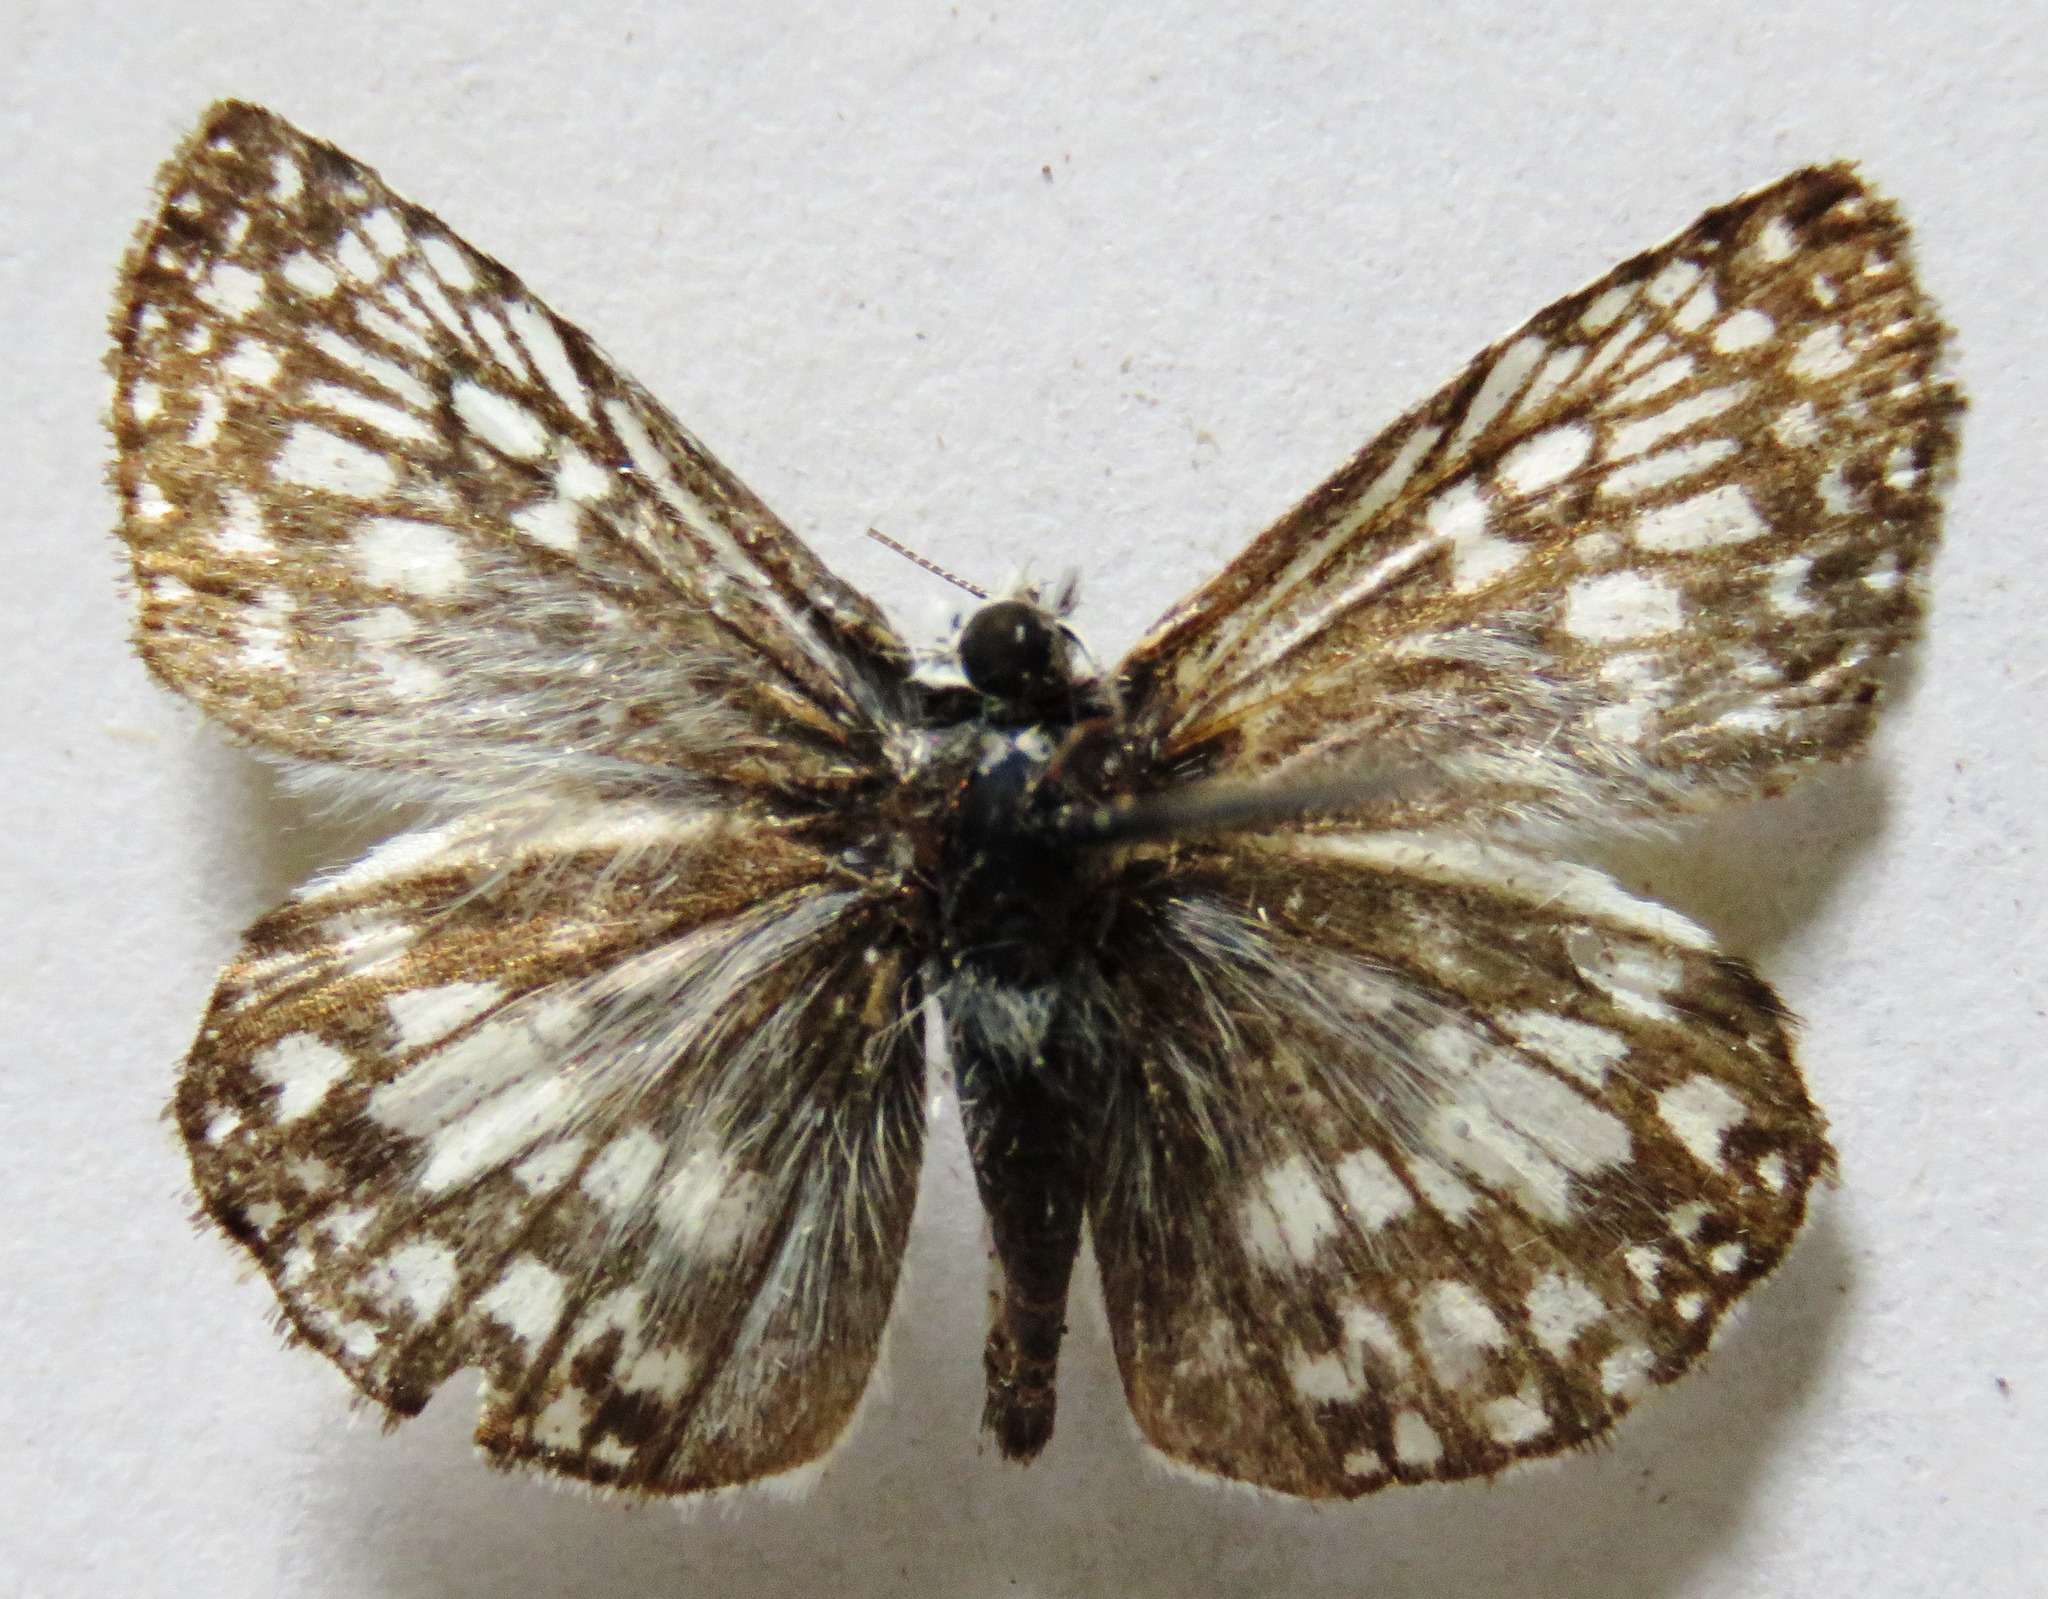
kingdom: Animalia
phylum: Arthropoda
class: Insecta
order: Lepidoptera
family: Hesperiidae
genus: Pyrgus
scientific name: Pyrgus oileus
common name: Tropical checkered-skipper
